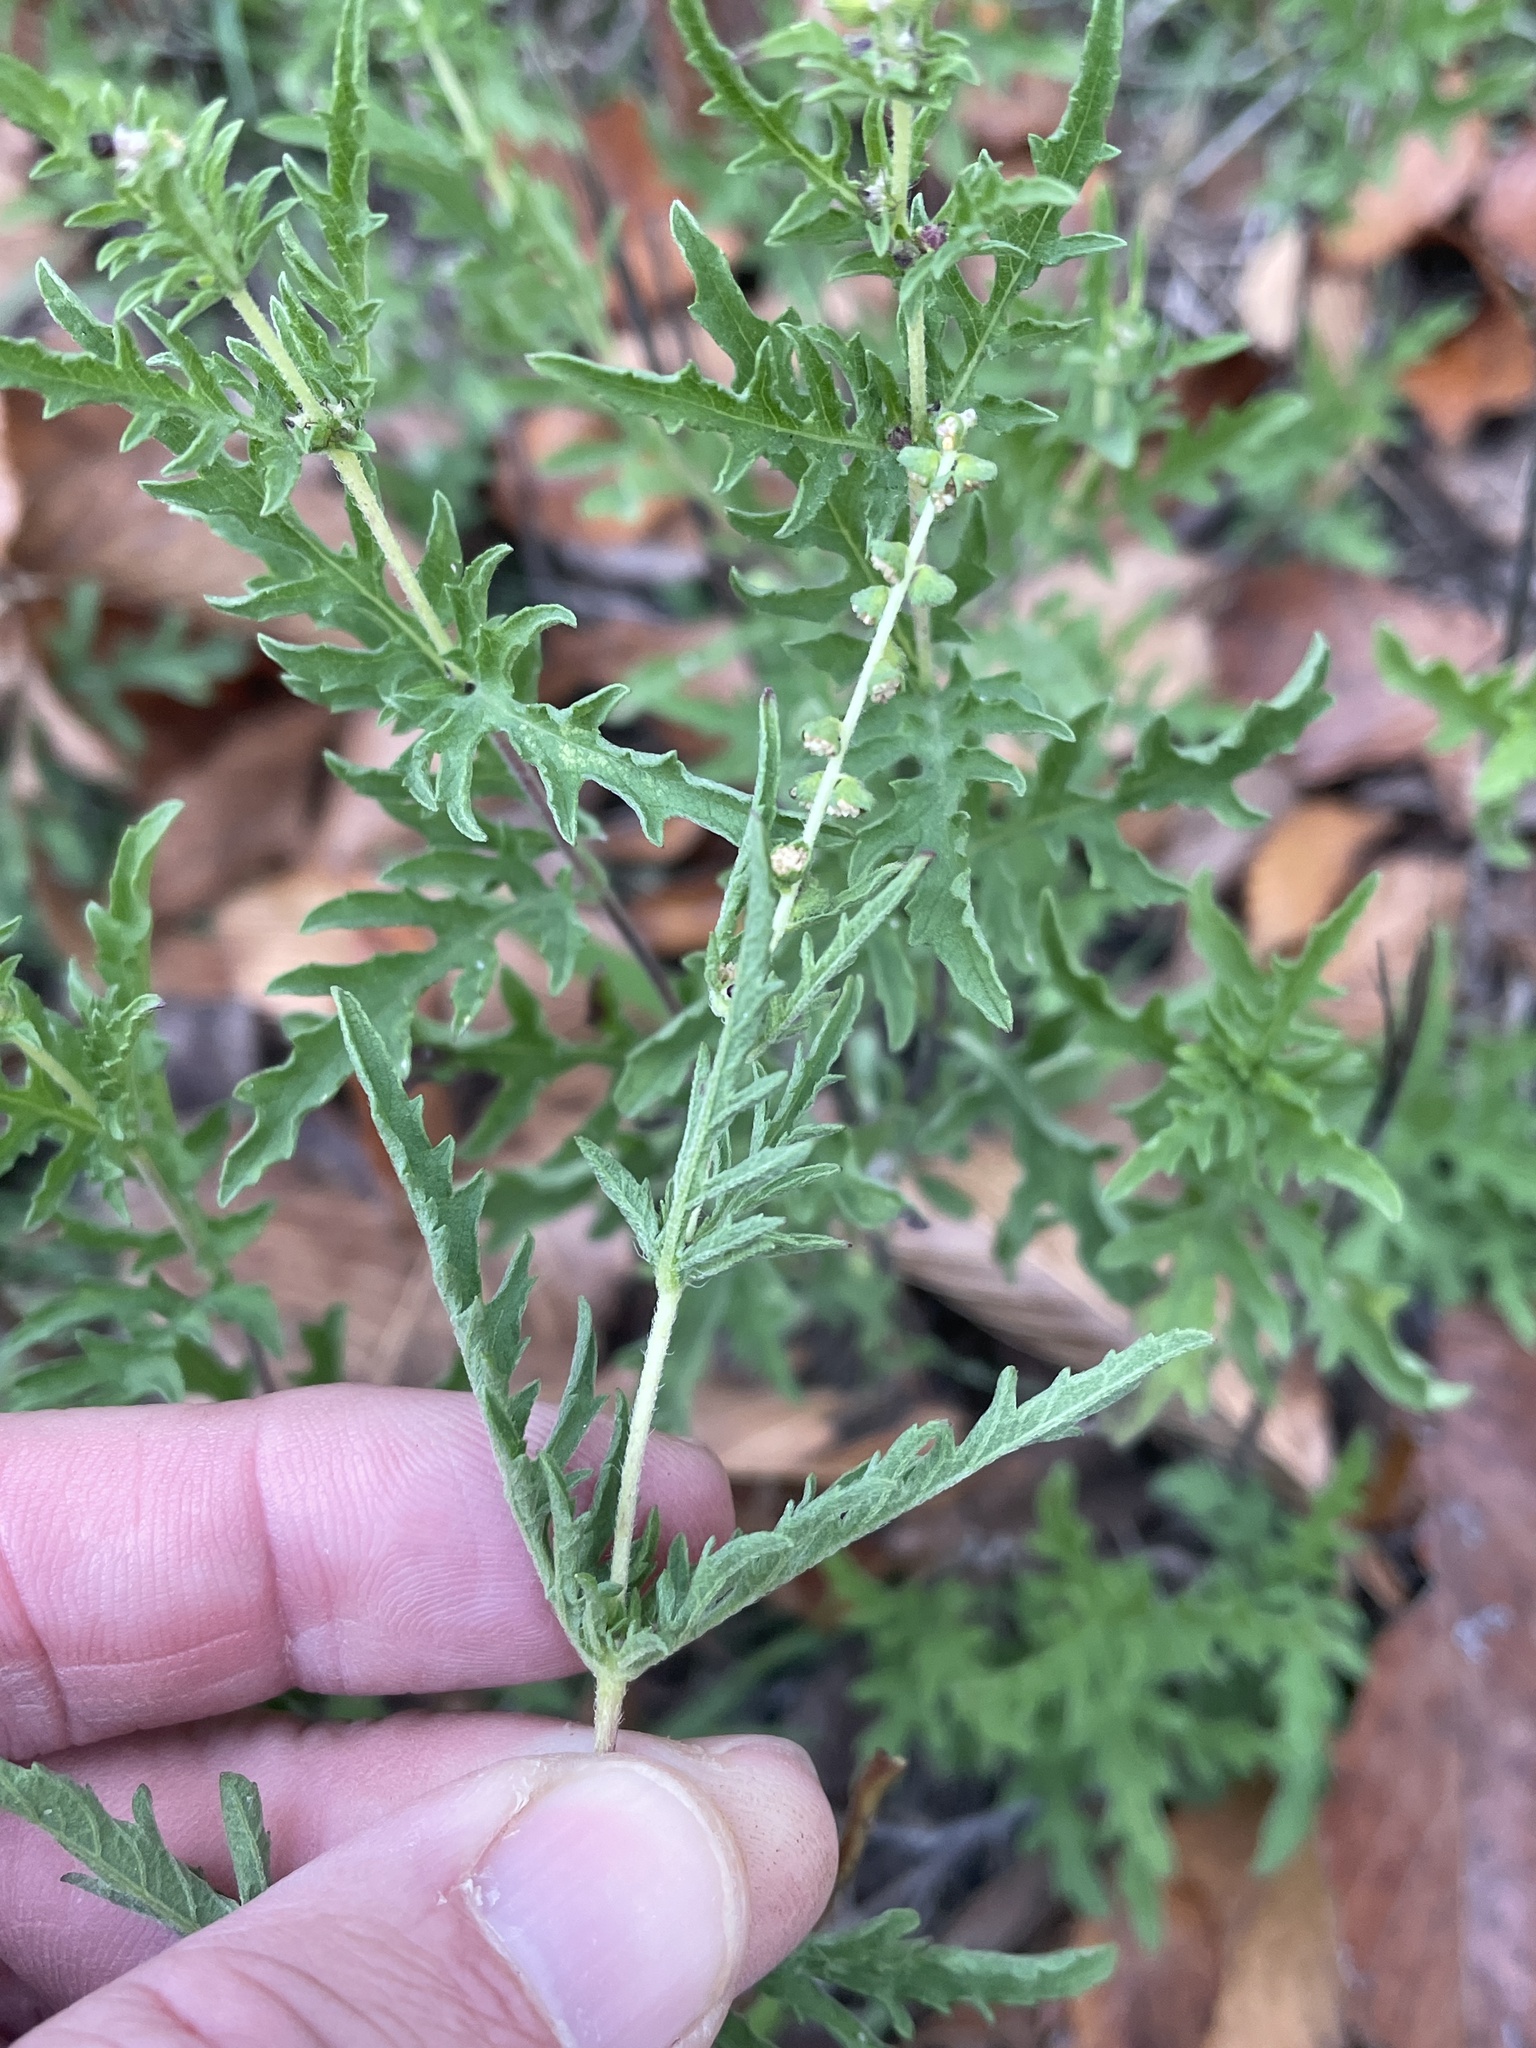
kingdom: Plantae
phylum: Tracheophyta
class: Magnoliopsida
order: Asterales
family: Asteraceae
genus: Ambrosia
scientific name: Ambrosia psilostachya
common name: Perennial ragweed
